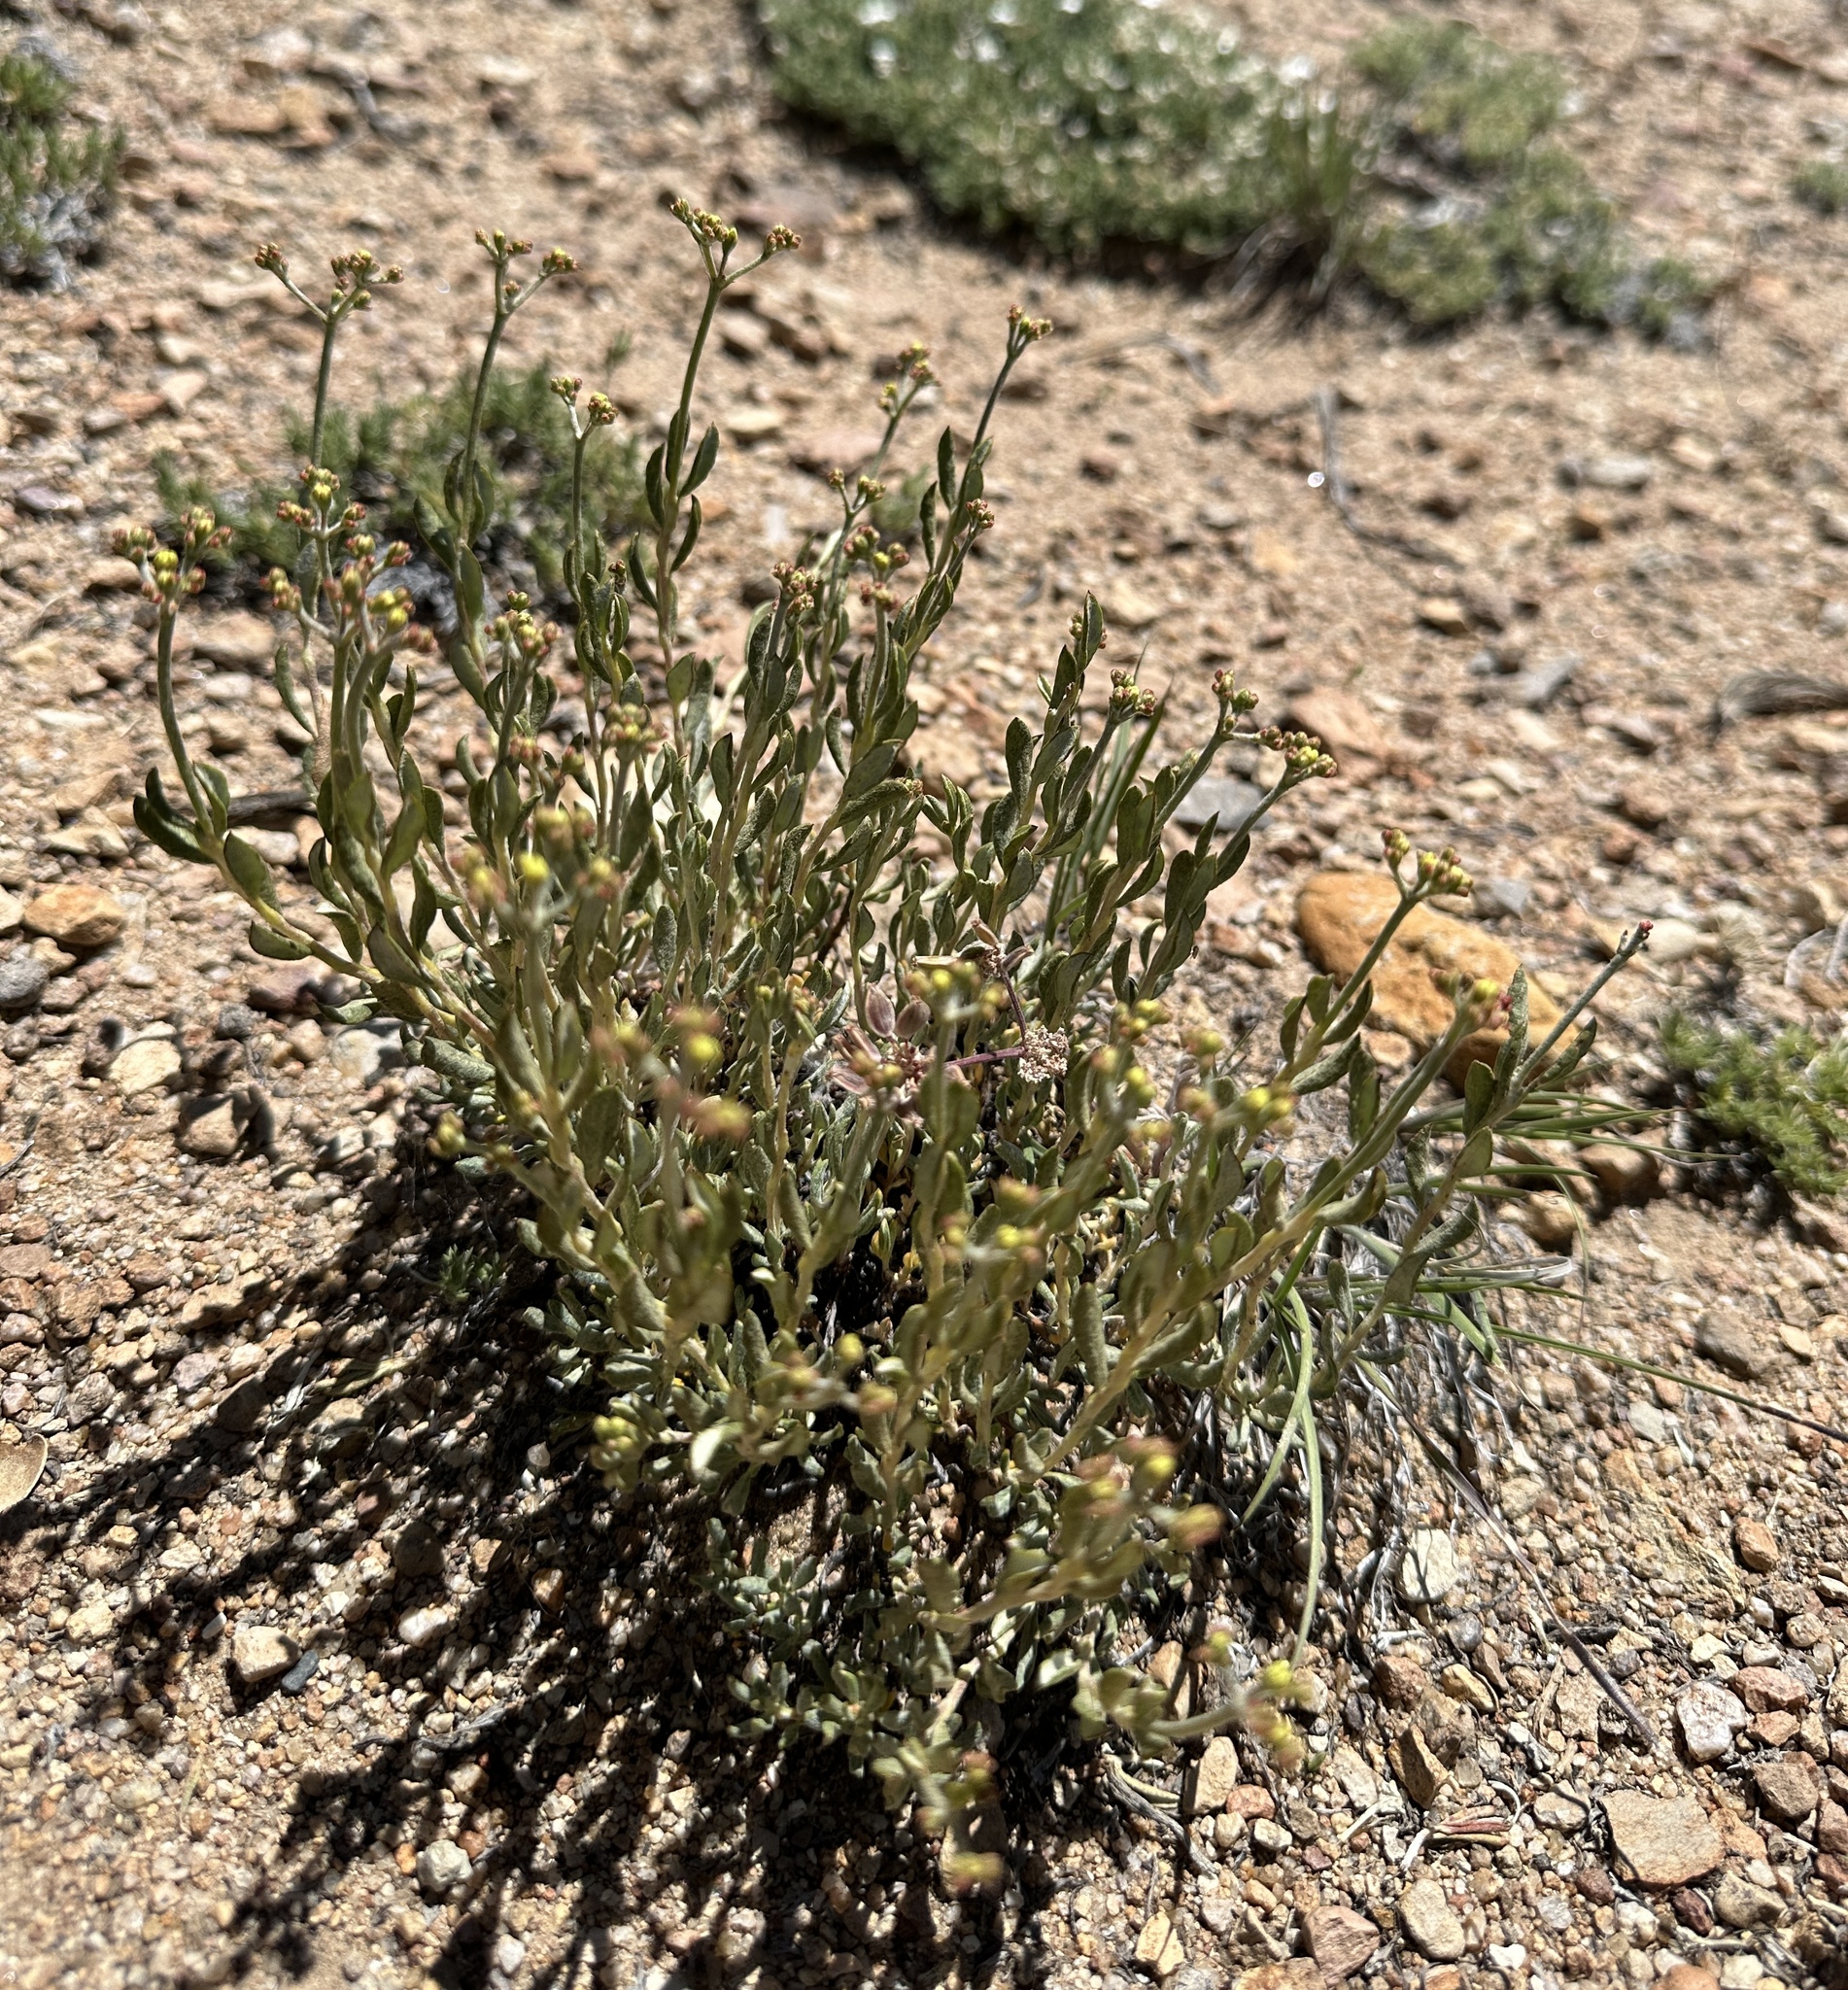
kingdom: Plantae
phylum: Tracheophyta
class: Magnoliopsida
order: Caryophyllales
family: Polygonaceae
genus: Eriogonum
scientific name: Eriogonum microtheca
